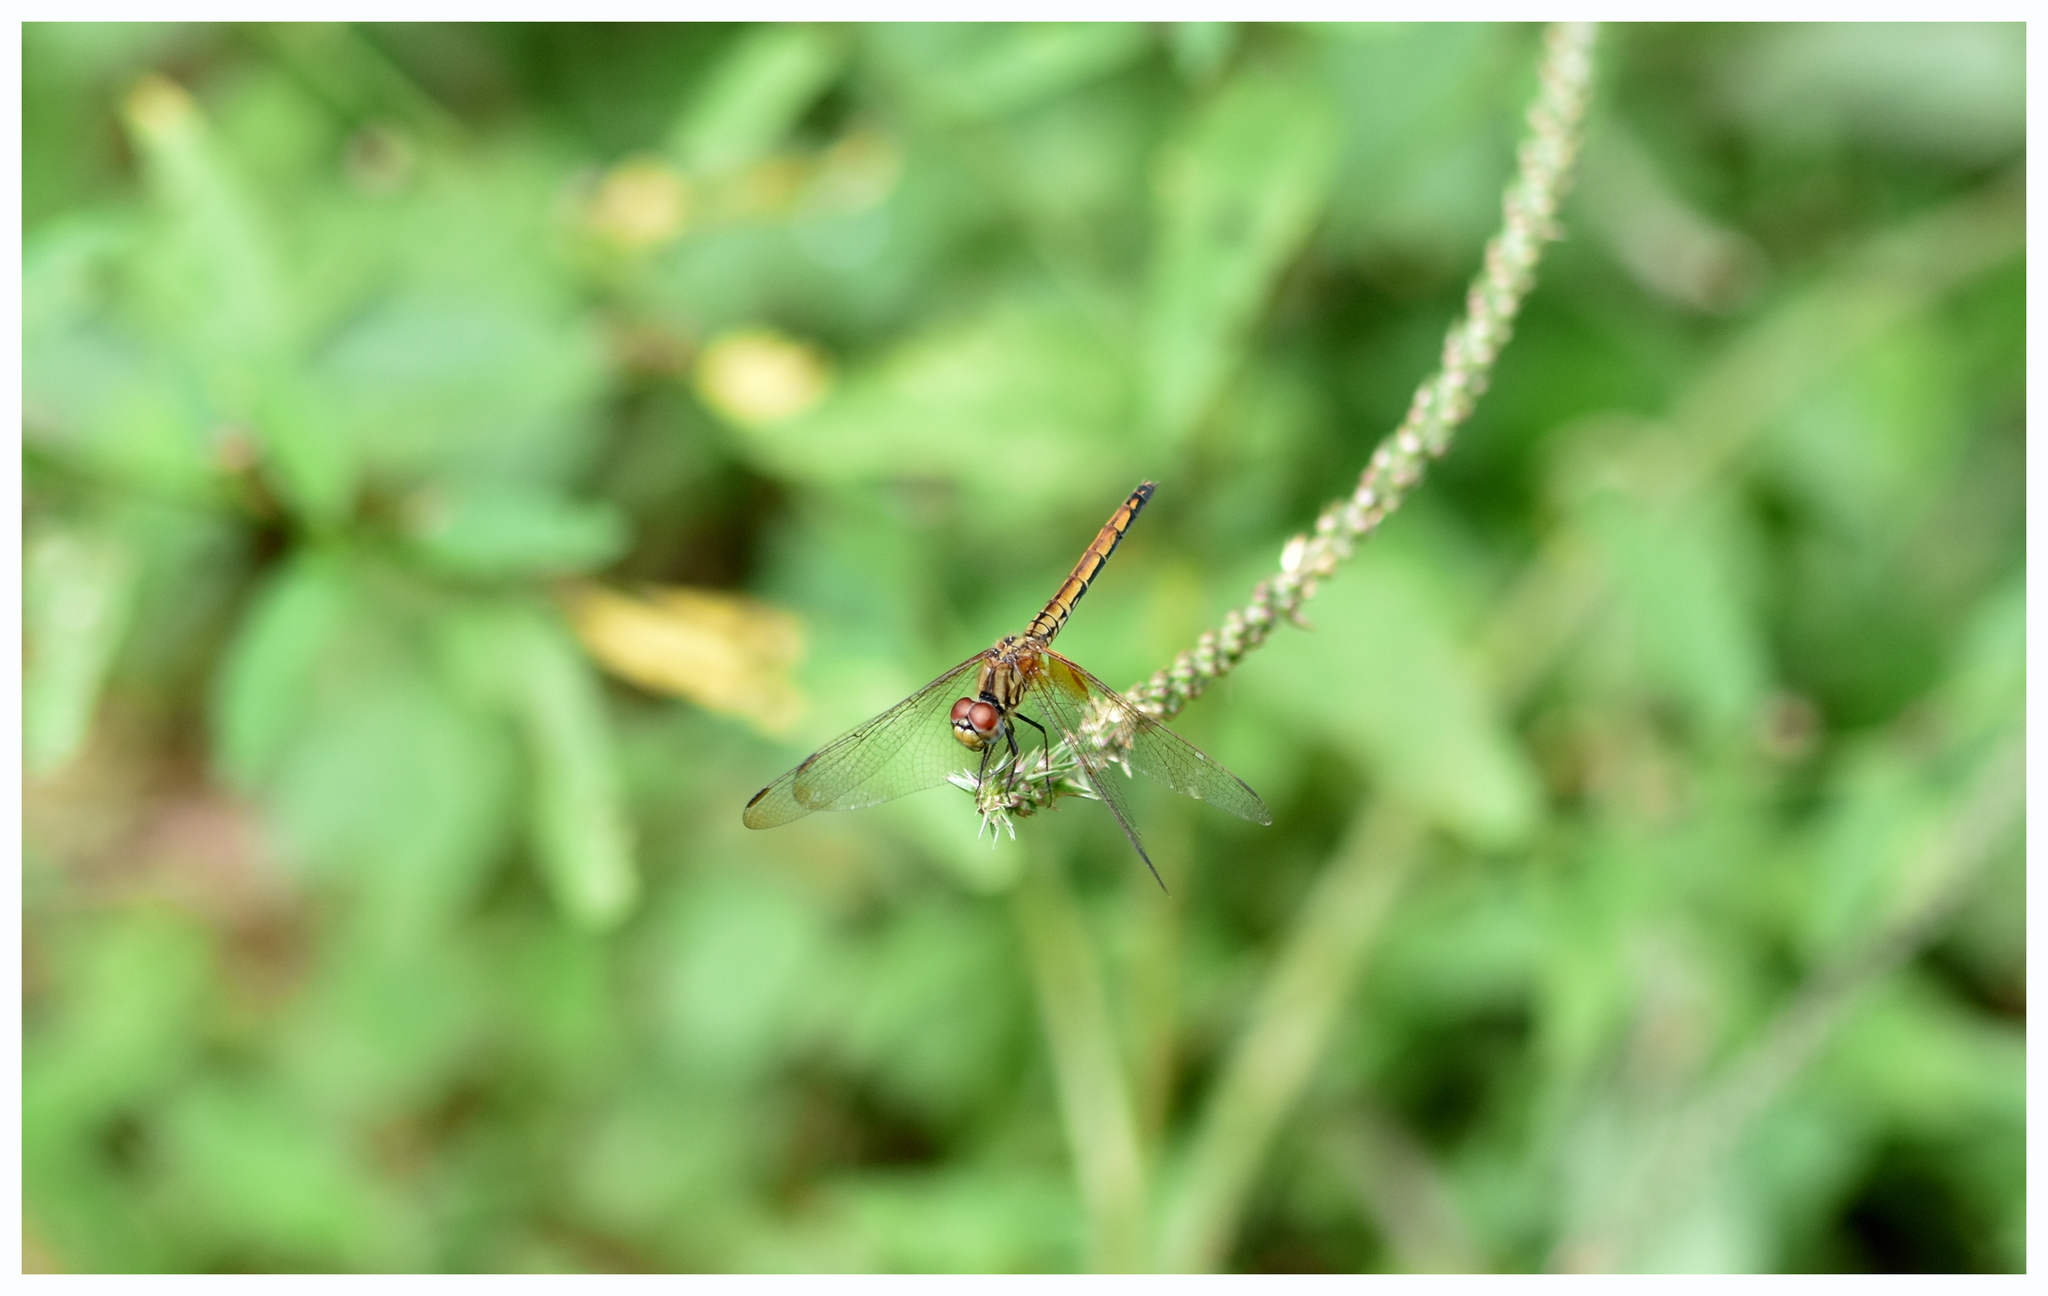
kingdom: Animalia
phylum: Arthropoda
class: Insecta
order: Odonata
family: Libellulidae
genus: Trithemis
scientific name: Trithemis aurora
